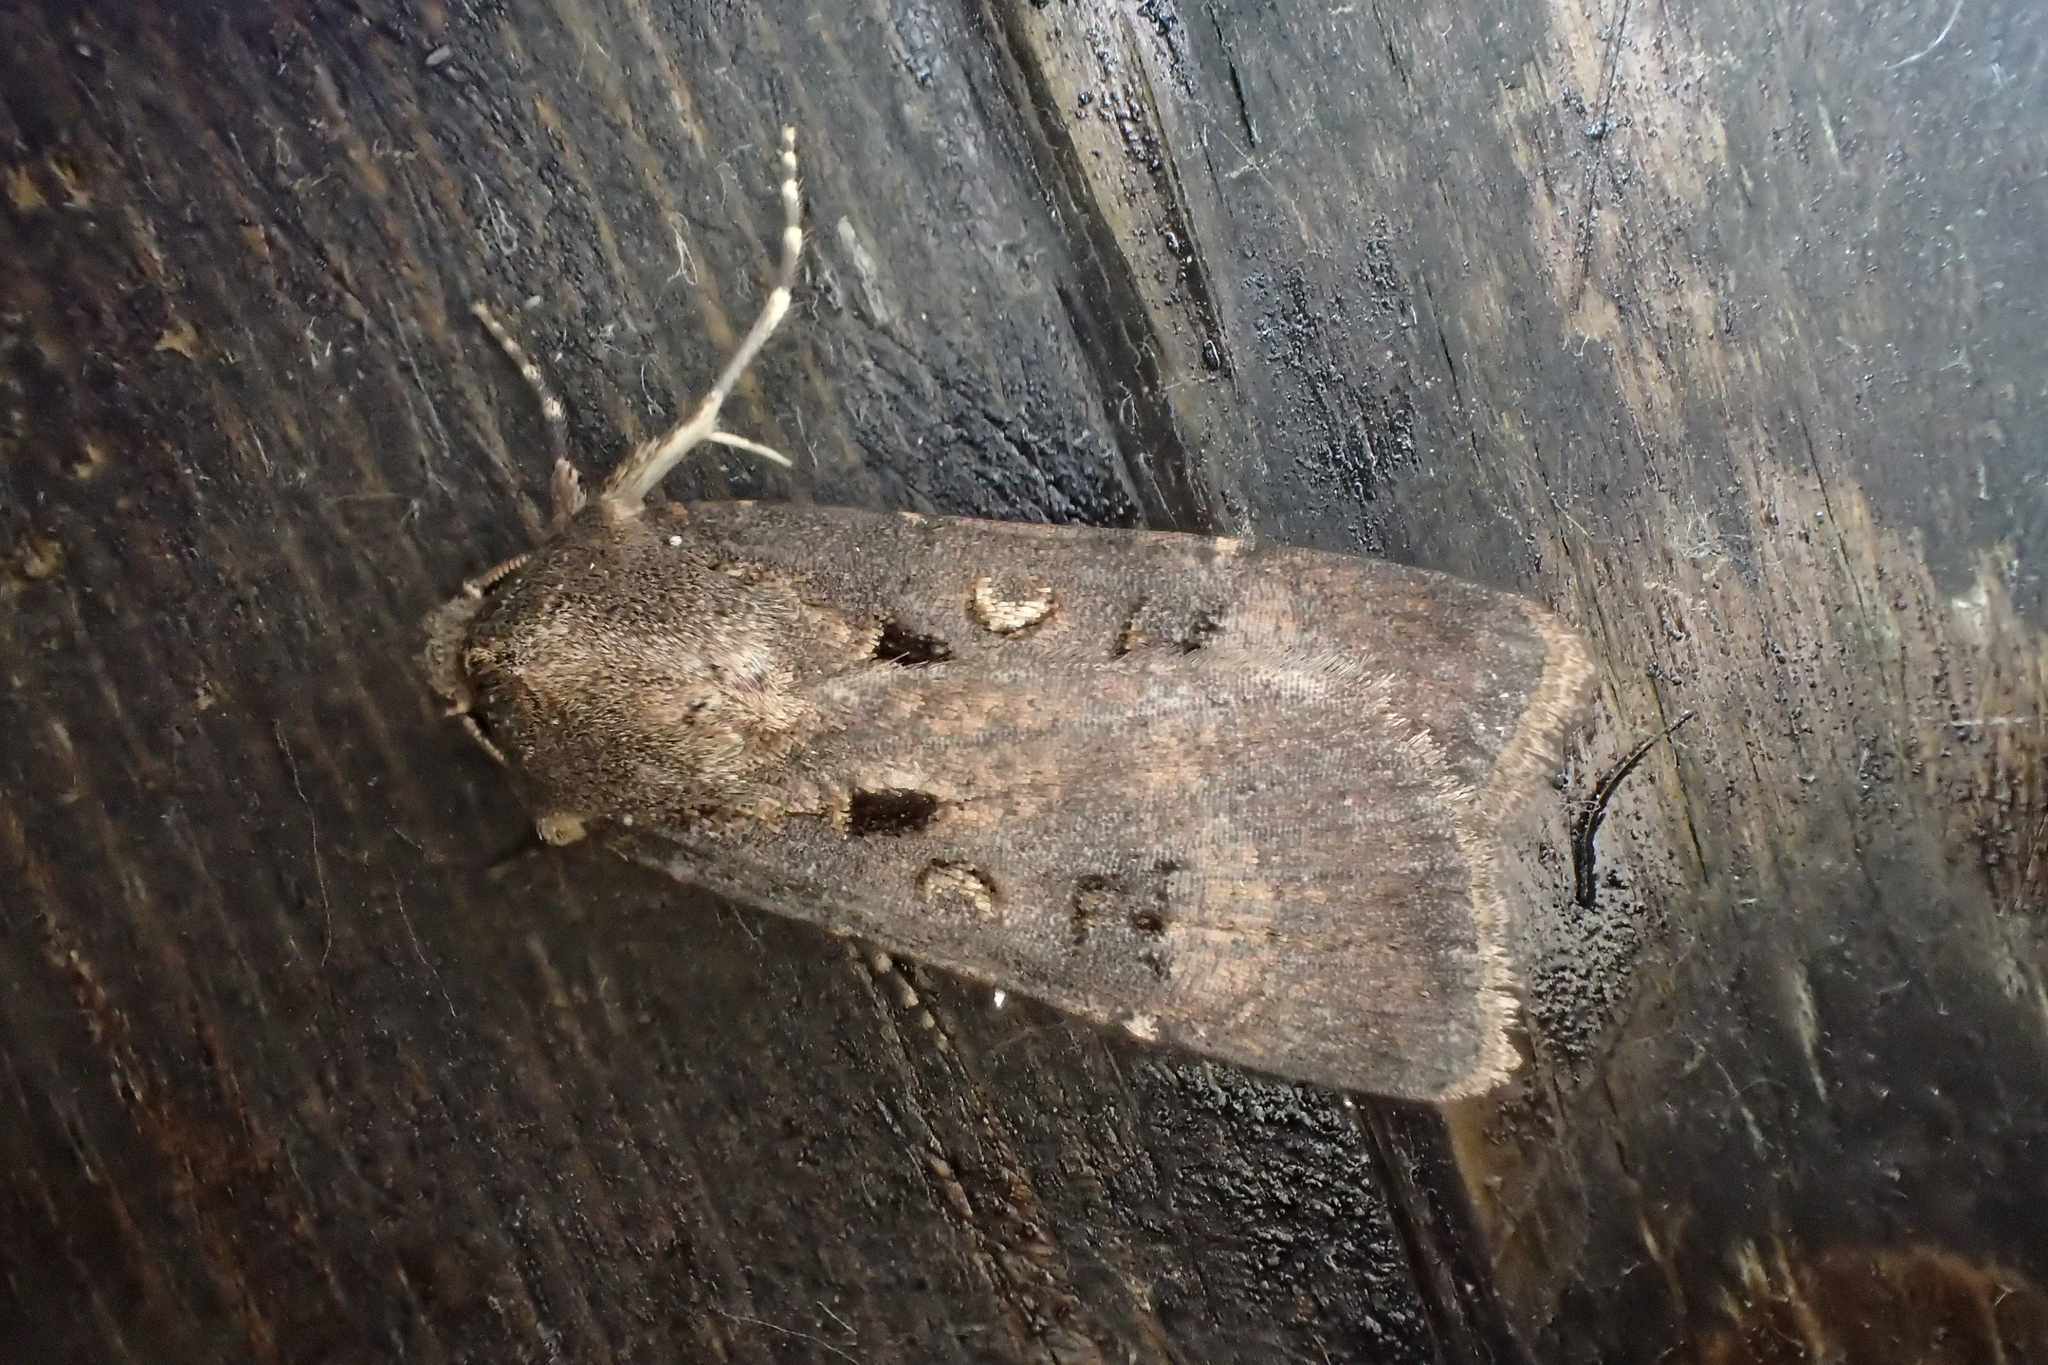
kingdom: Animalia
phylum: Arthropoda
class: Insecta
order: Lepidoptera
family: Noctuidae
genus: Agrotis
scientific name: Agrotis trux
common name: Crescent dart
